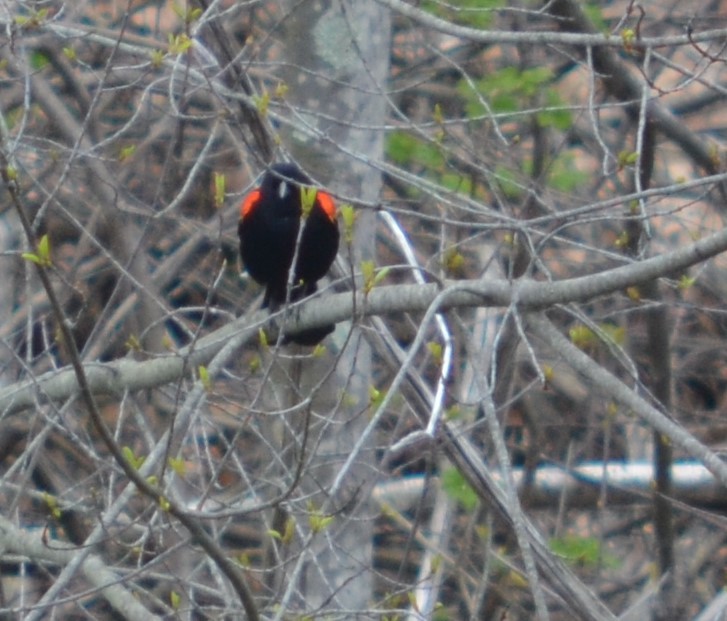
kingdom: Animalia
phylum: Chordata
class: Aves
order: Passeriformes
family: Icteridae
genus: Agelaius
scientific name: Agelaius phoeniceus
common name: Red-winged blackbird
